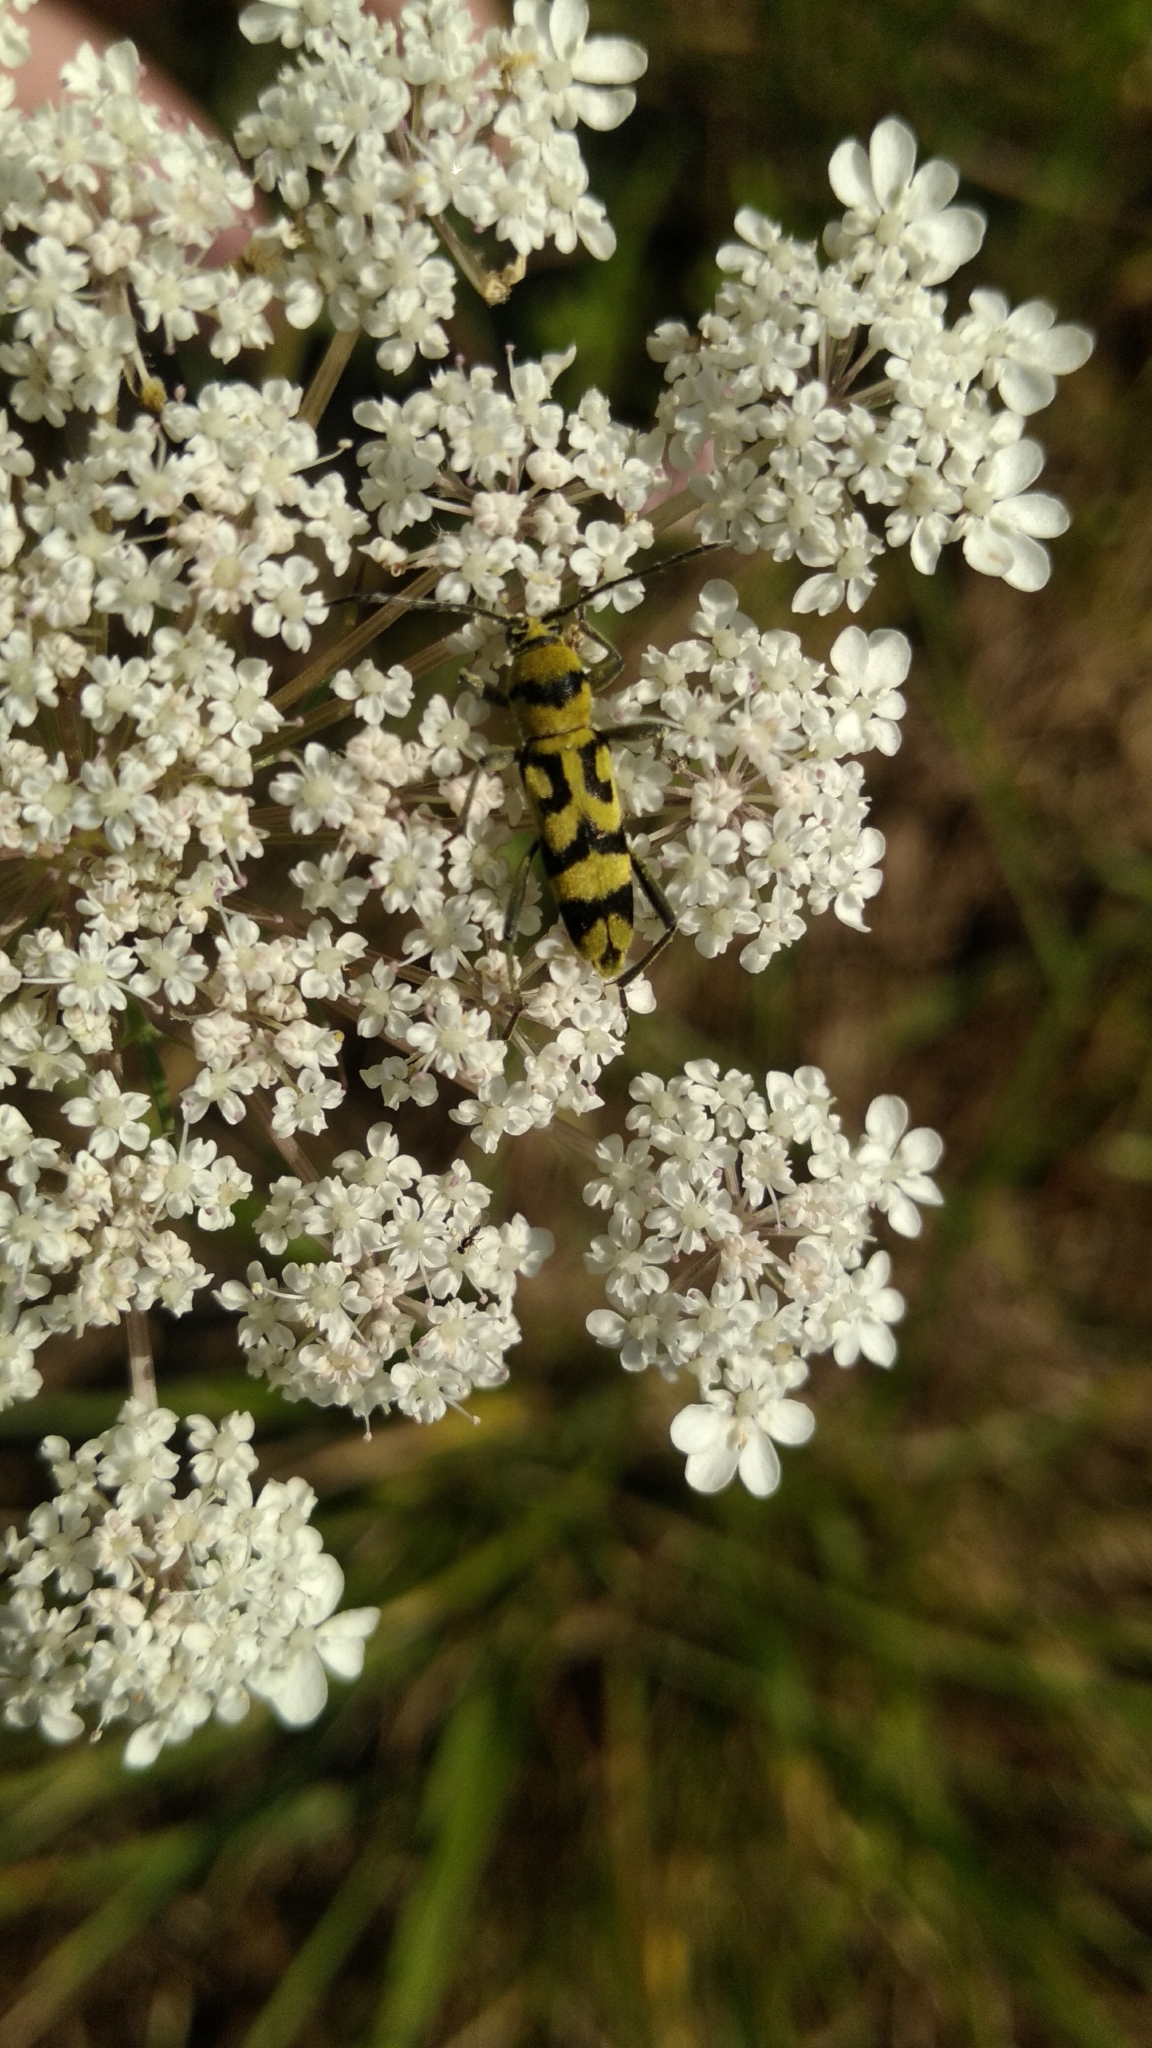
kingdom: Animalia
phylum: Arthropoda
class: Insecta
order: Coleoptera
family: Cerambycidae
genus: Chlorophorus
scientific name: Chlorophorus varius
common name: Grape wood borer
